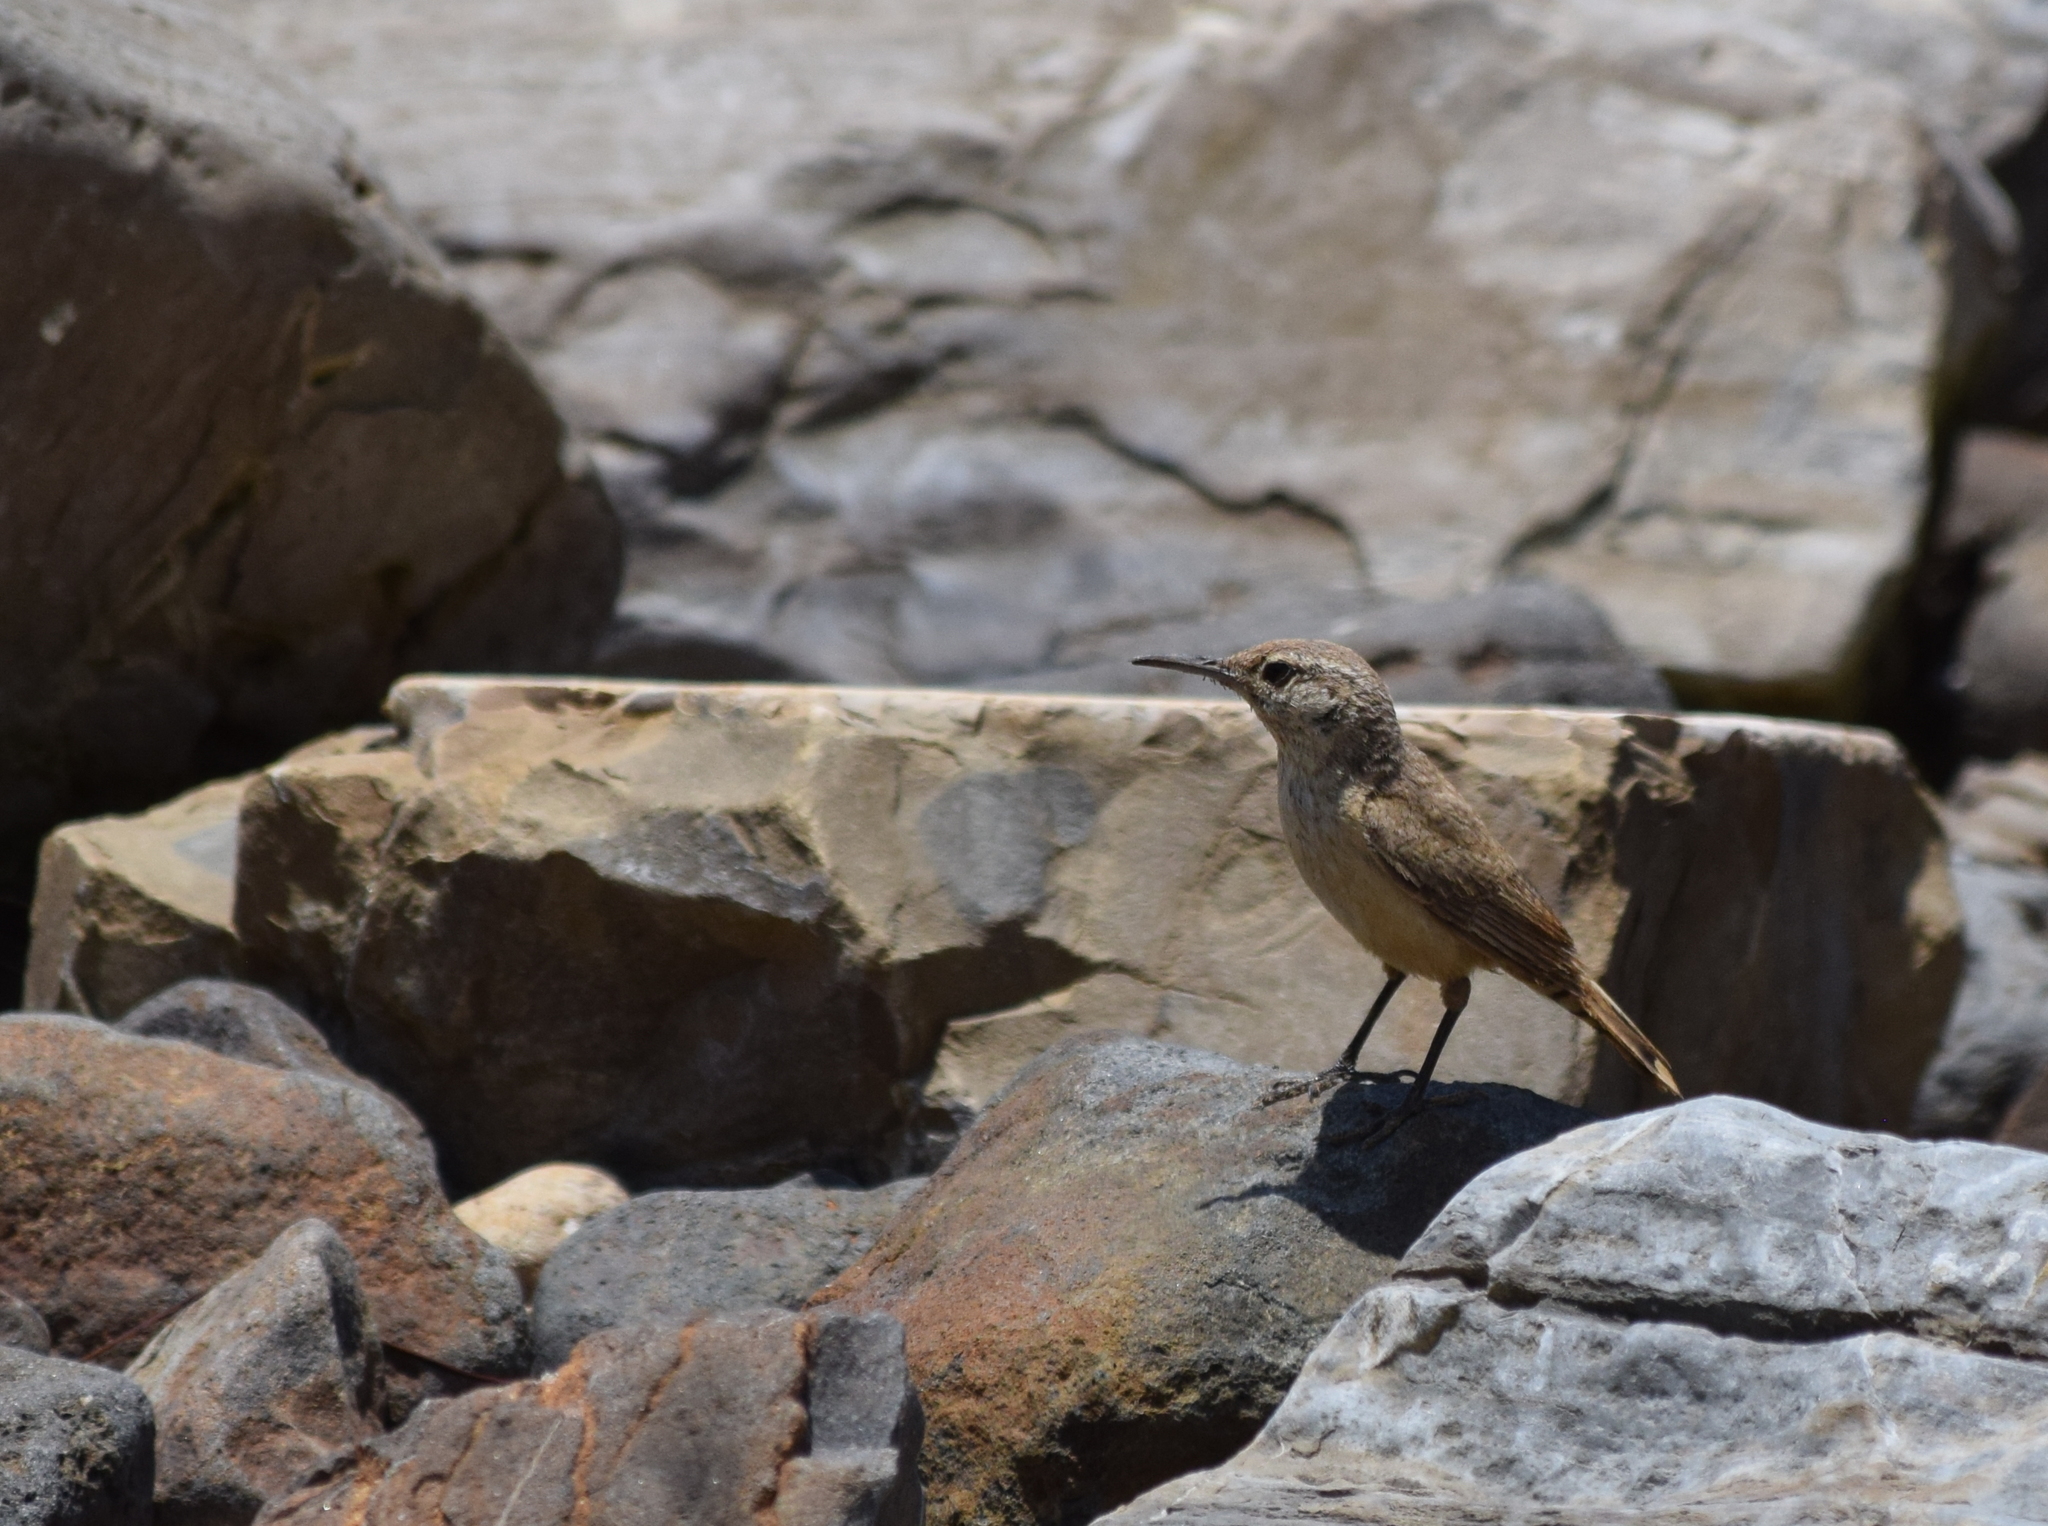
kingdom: Animalia
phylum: Chordata
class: Aves
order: Passeriformes
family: Troglodytidae
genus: Salpinctes
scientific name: Salpinctes obsoletus
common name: Rock wren
